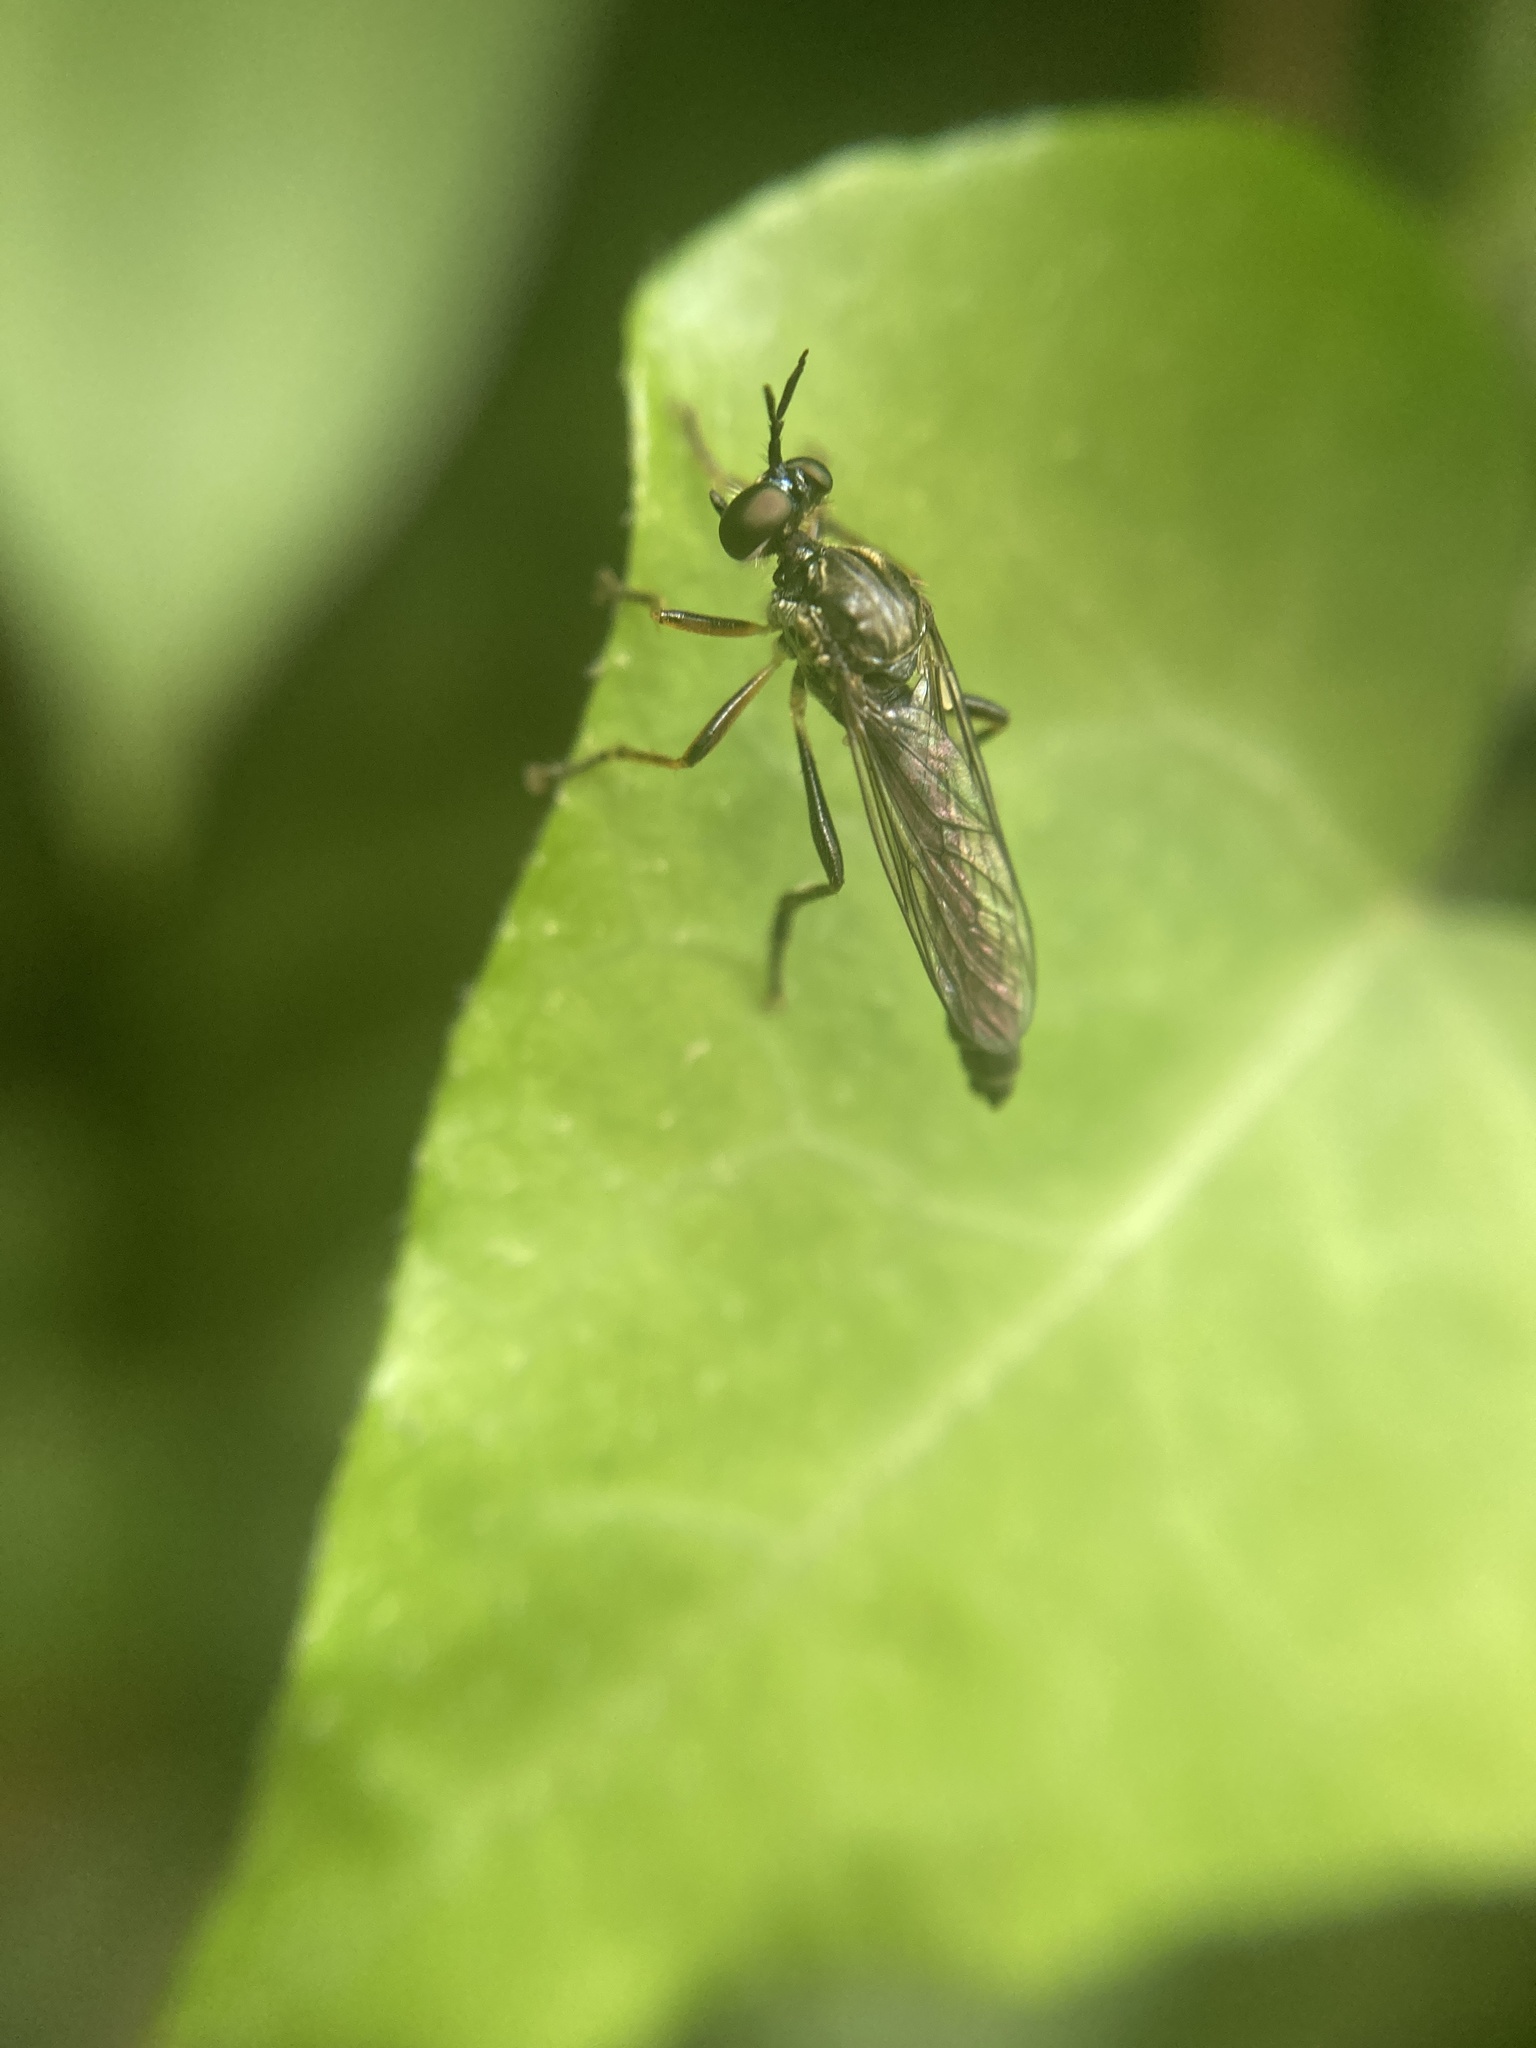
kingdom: Animalia
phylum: Arthropoda
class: Insecta
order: Diptera
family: Asilidae
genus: Dioctria
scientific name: Dioctria hyalipennis
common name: Stripe-legged robberfly
